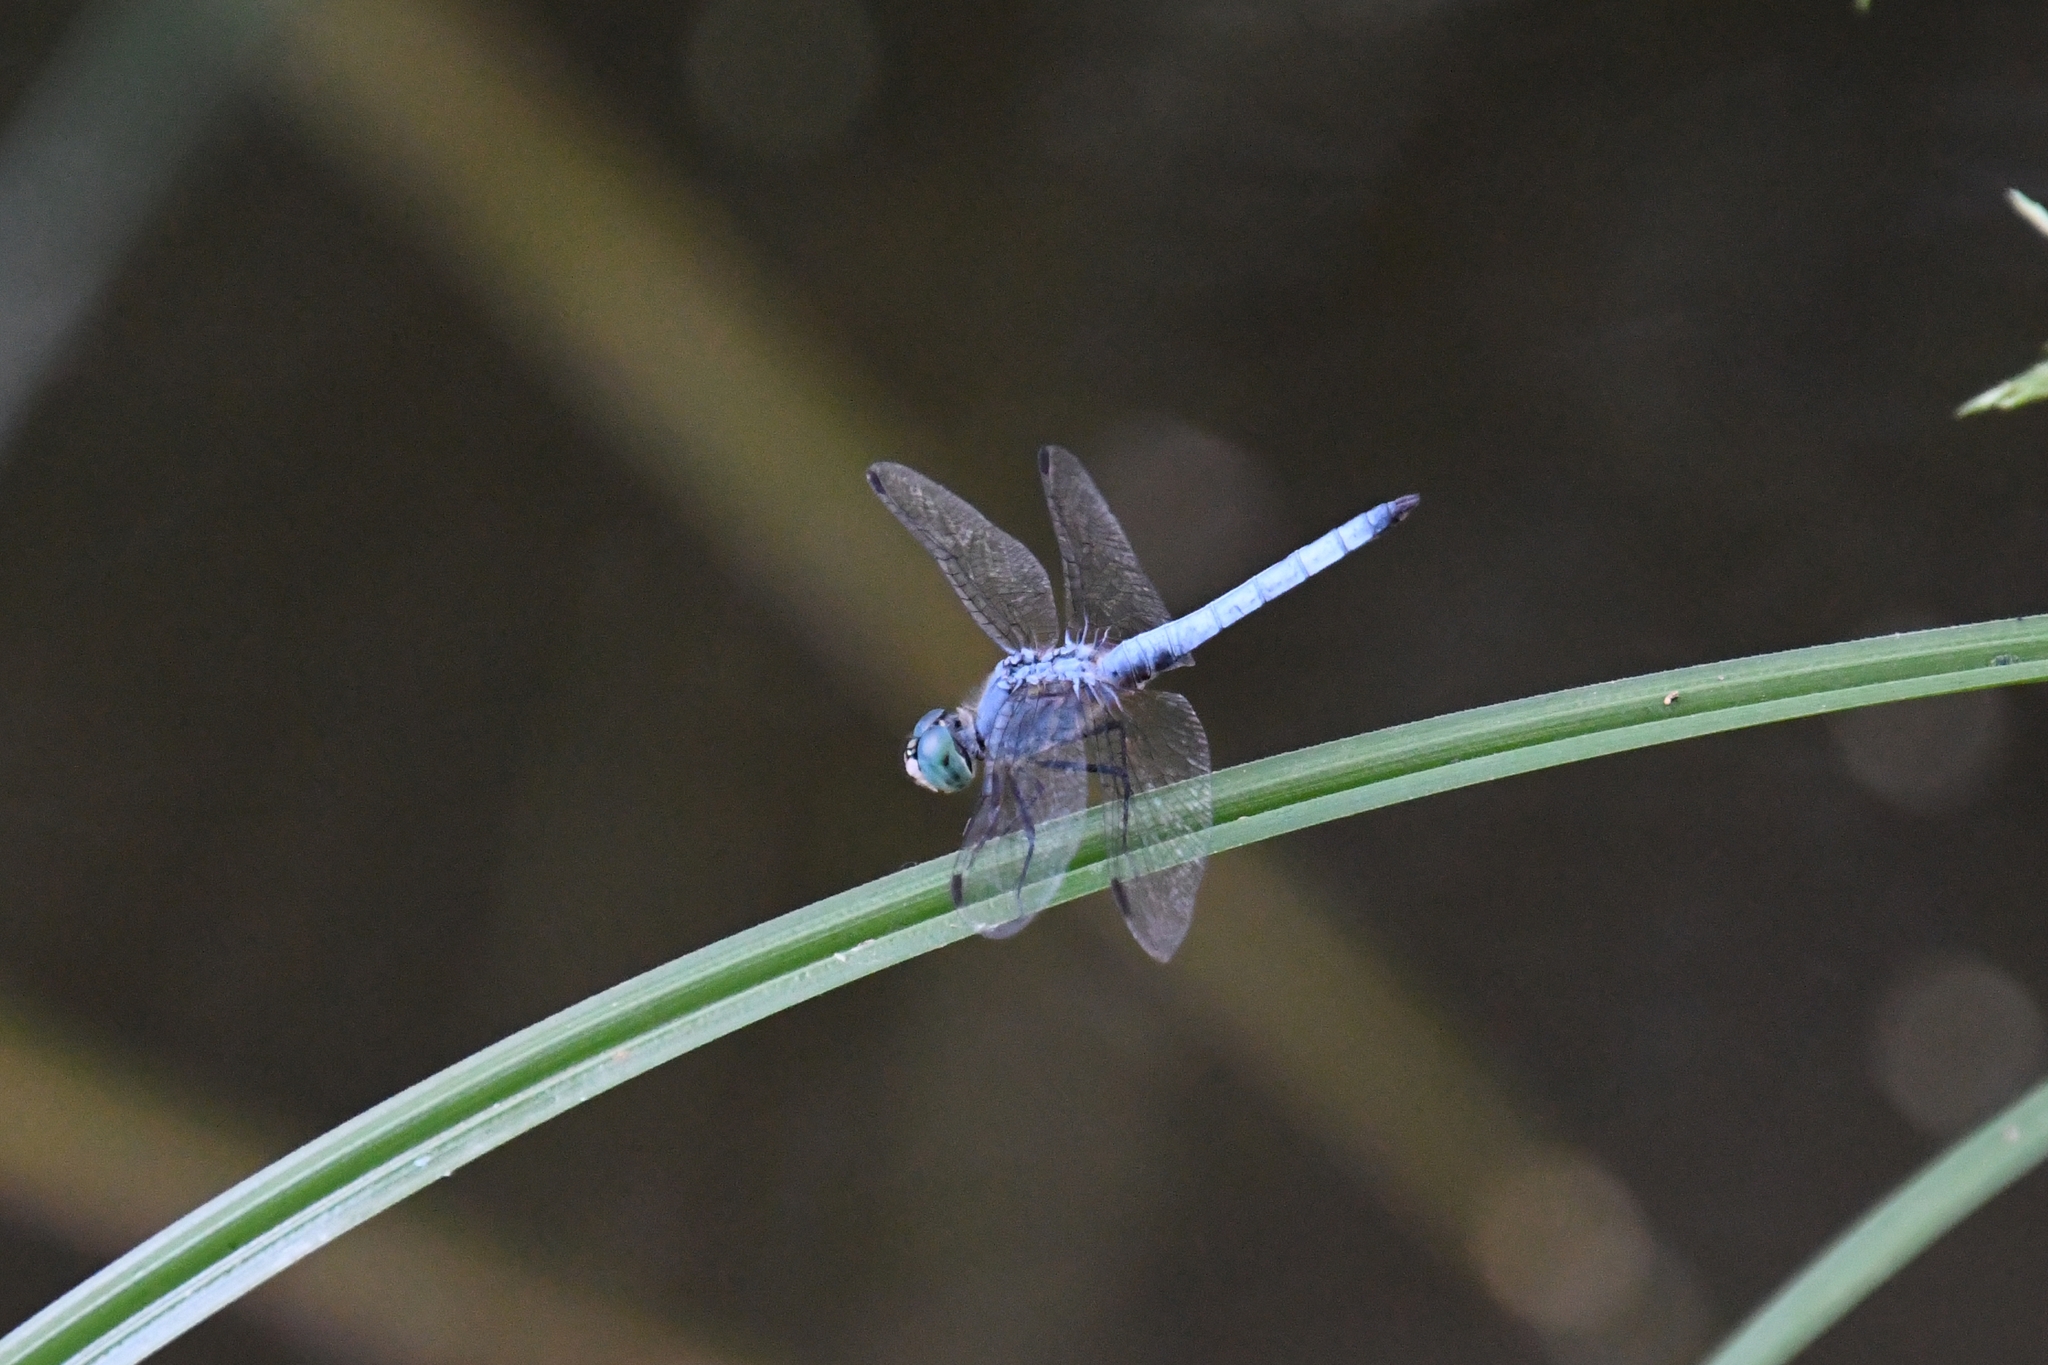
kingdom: Animalia
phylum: Arthropoda
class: Insecta
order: Odonata
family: Libellulidae
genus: Pachydiplax
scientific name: Pachydiplax longipennis
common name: Blue dasher
